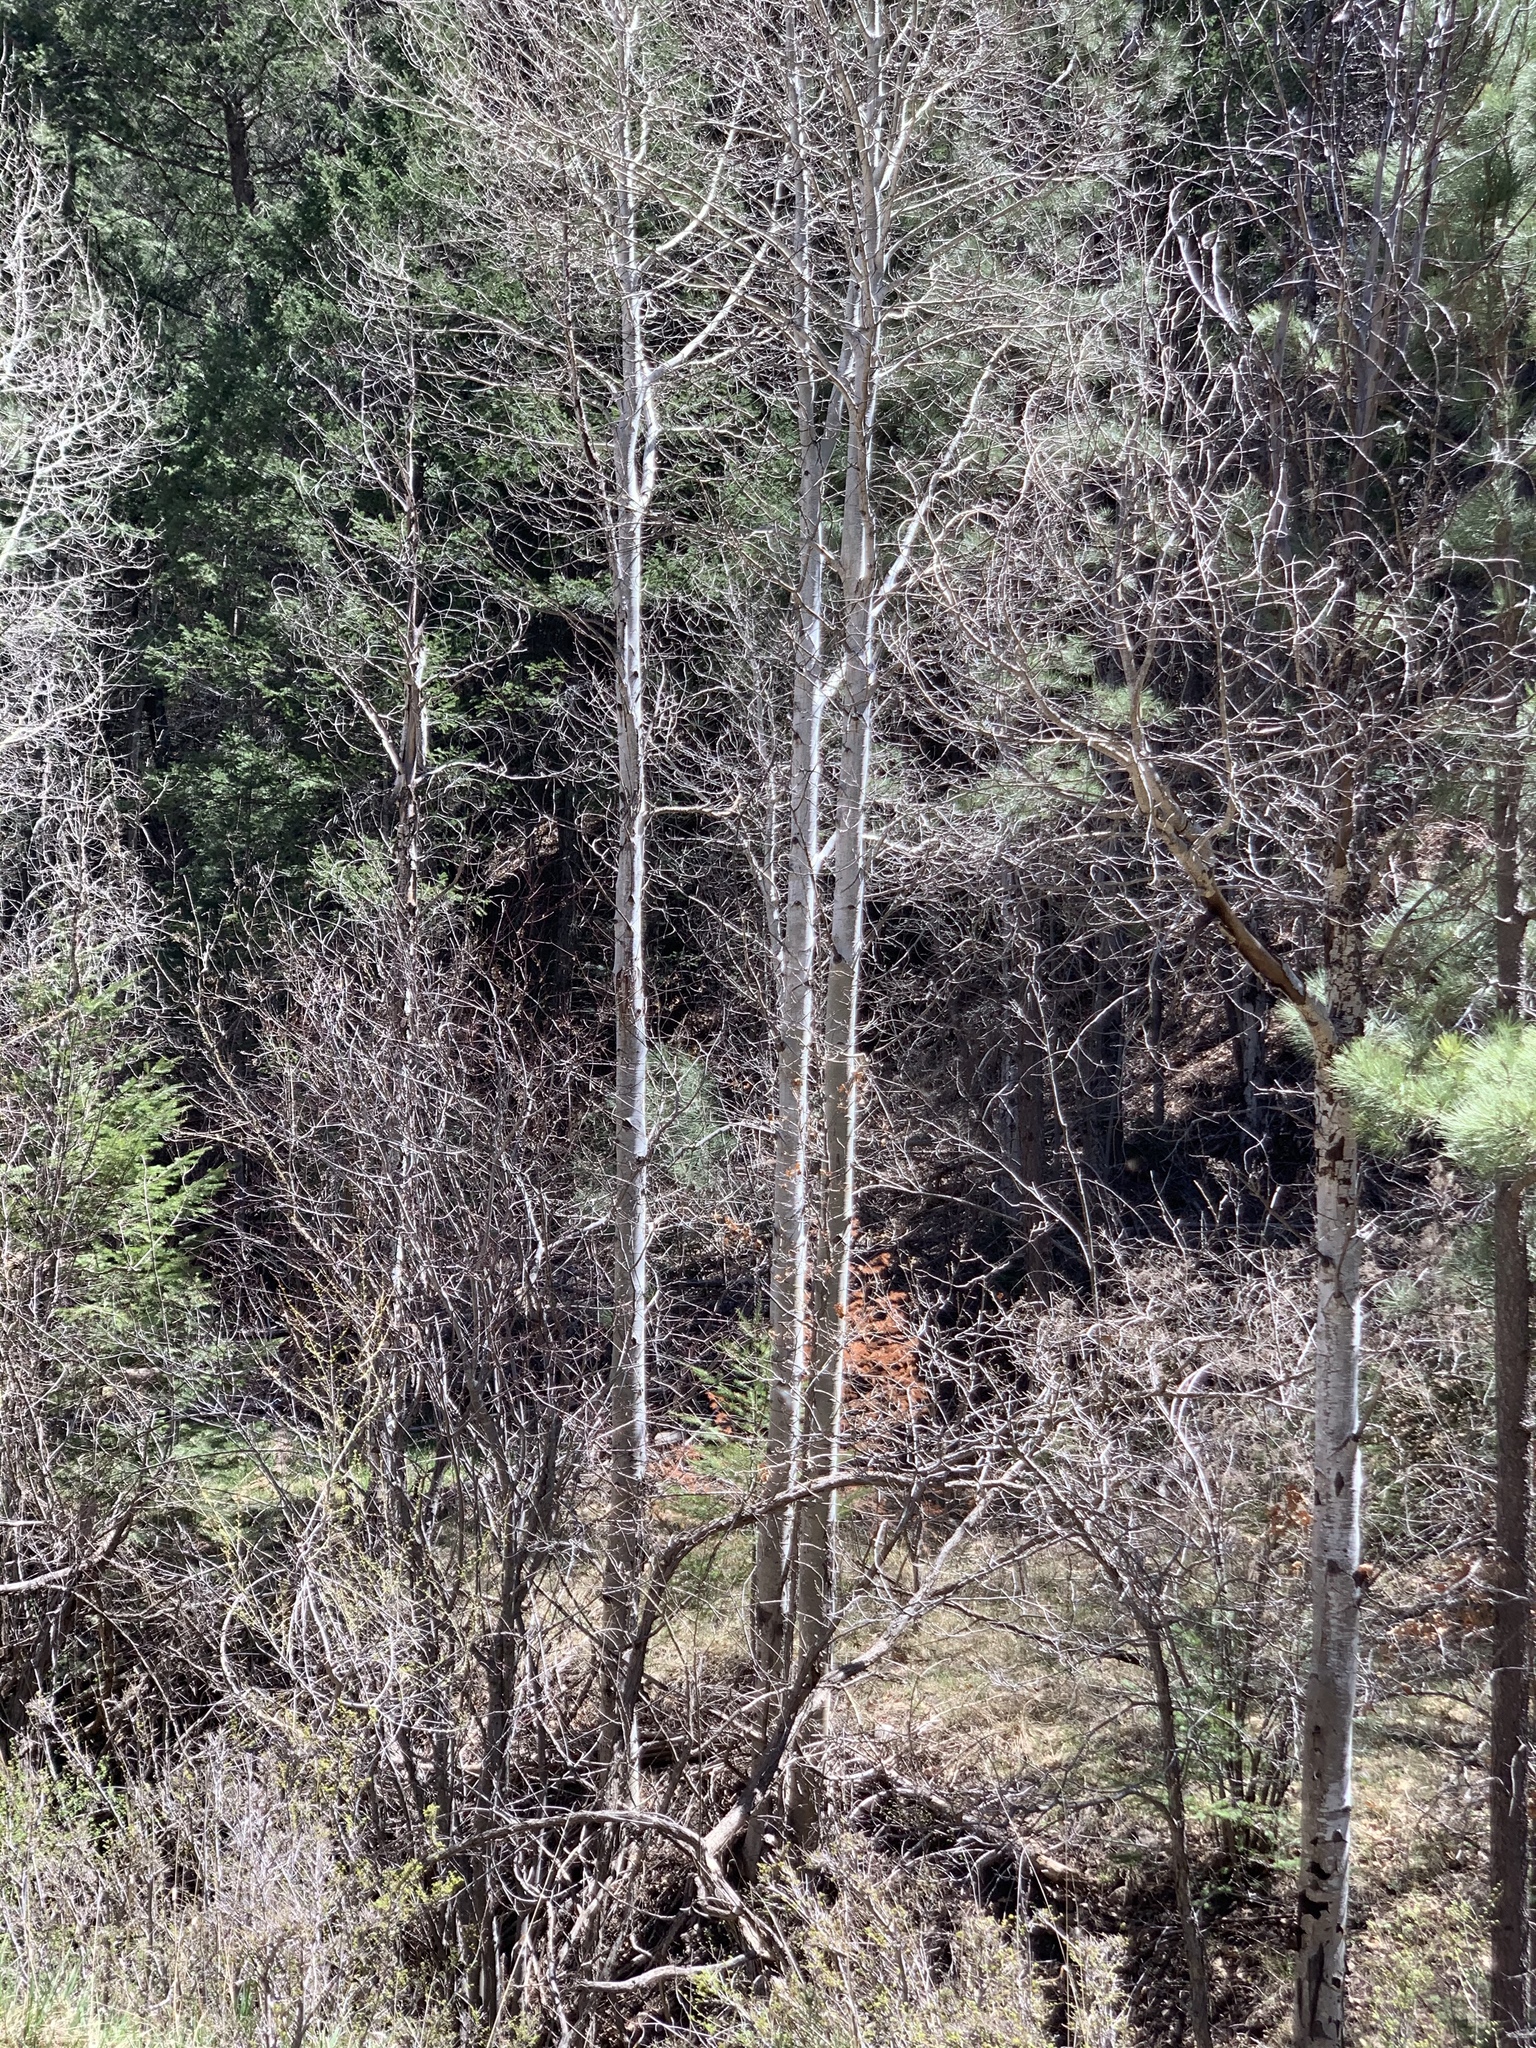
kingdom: Plantae
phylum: Tracheophyta
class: Magnoliopsida
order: Malpighiales
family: Salicaceae
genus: Populus
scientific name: Populus tremuloides
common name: Quaking aspen
